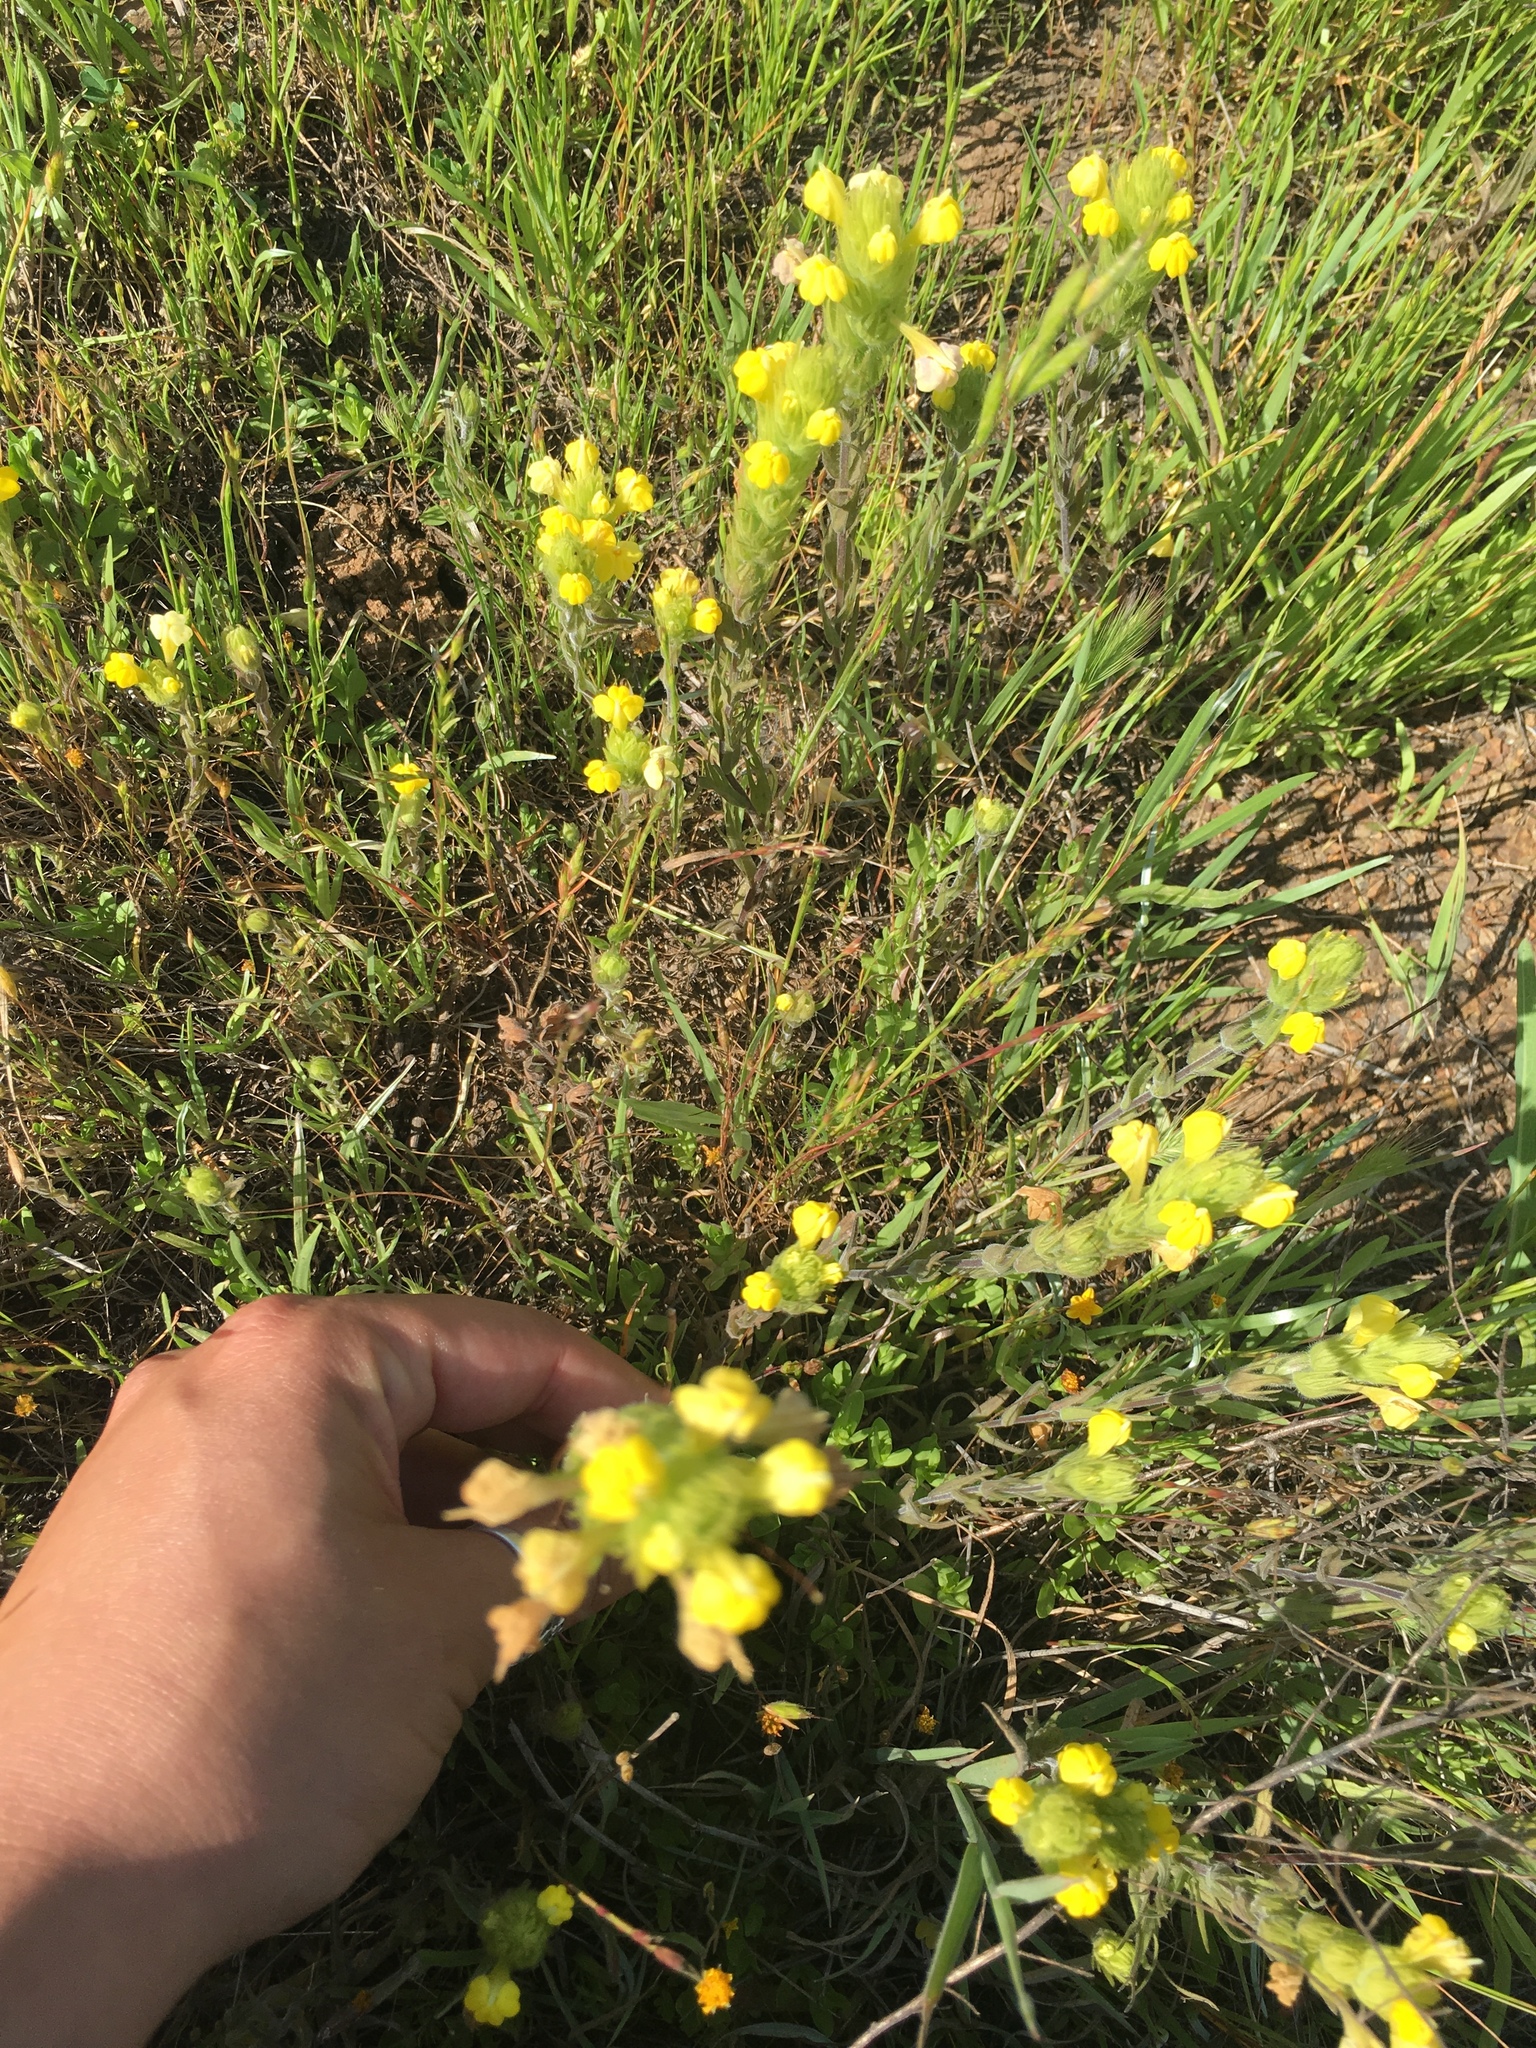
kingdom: Plantae
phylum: Tracheophyta
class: Magnoliopsida
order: Lamiales
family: Orobanchaceae
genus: Castilleja
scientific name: Castilleja rubicundula
